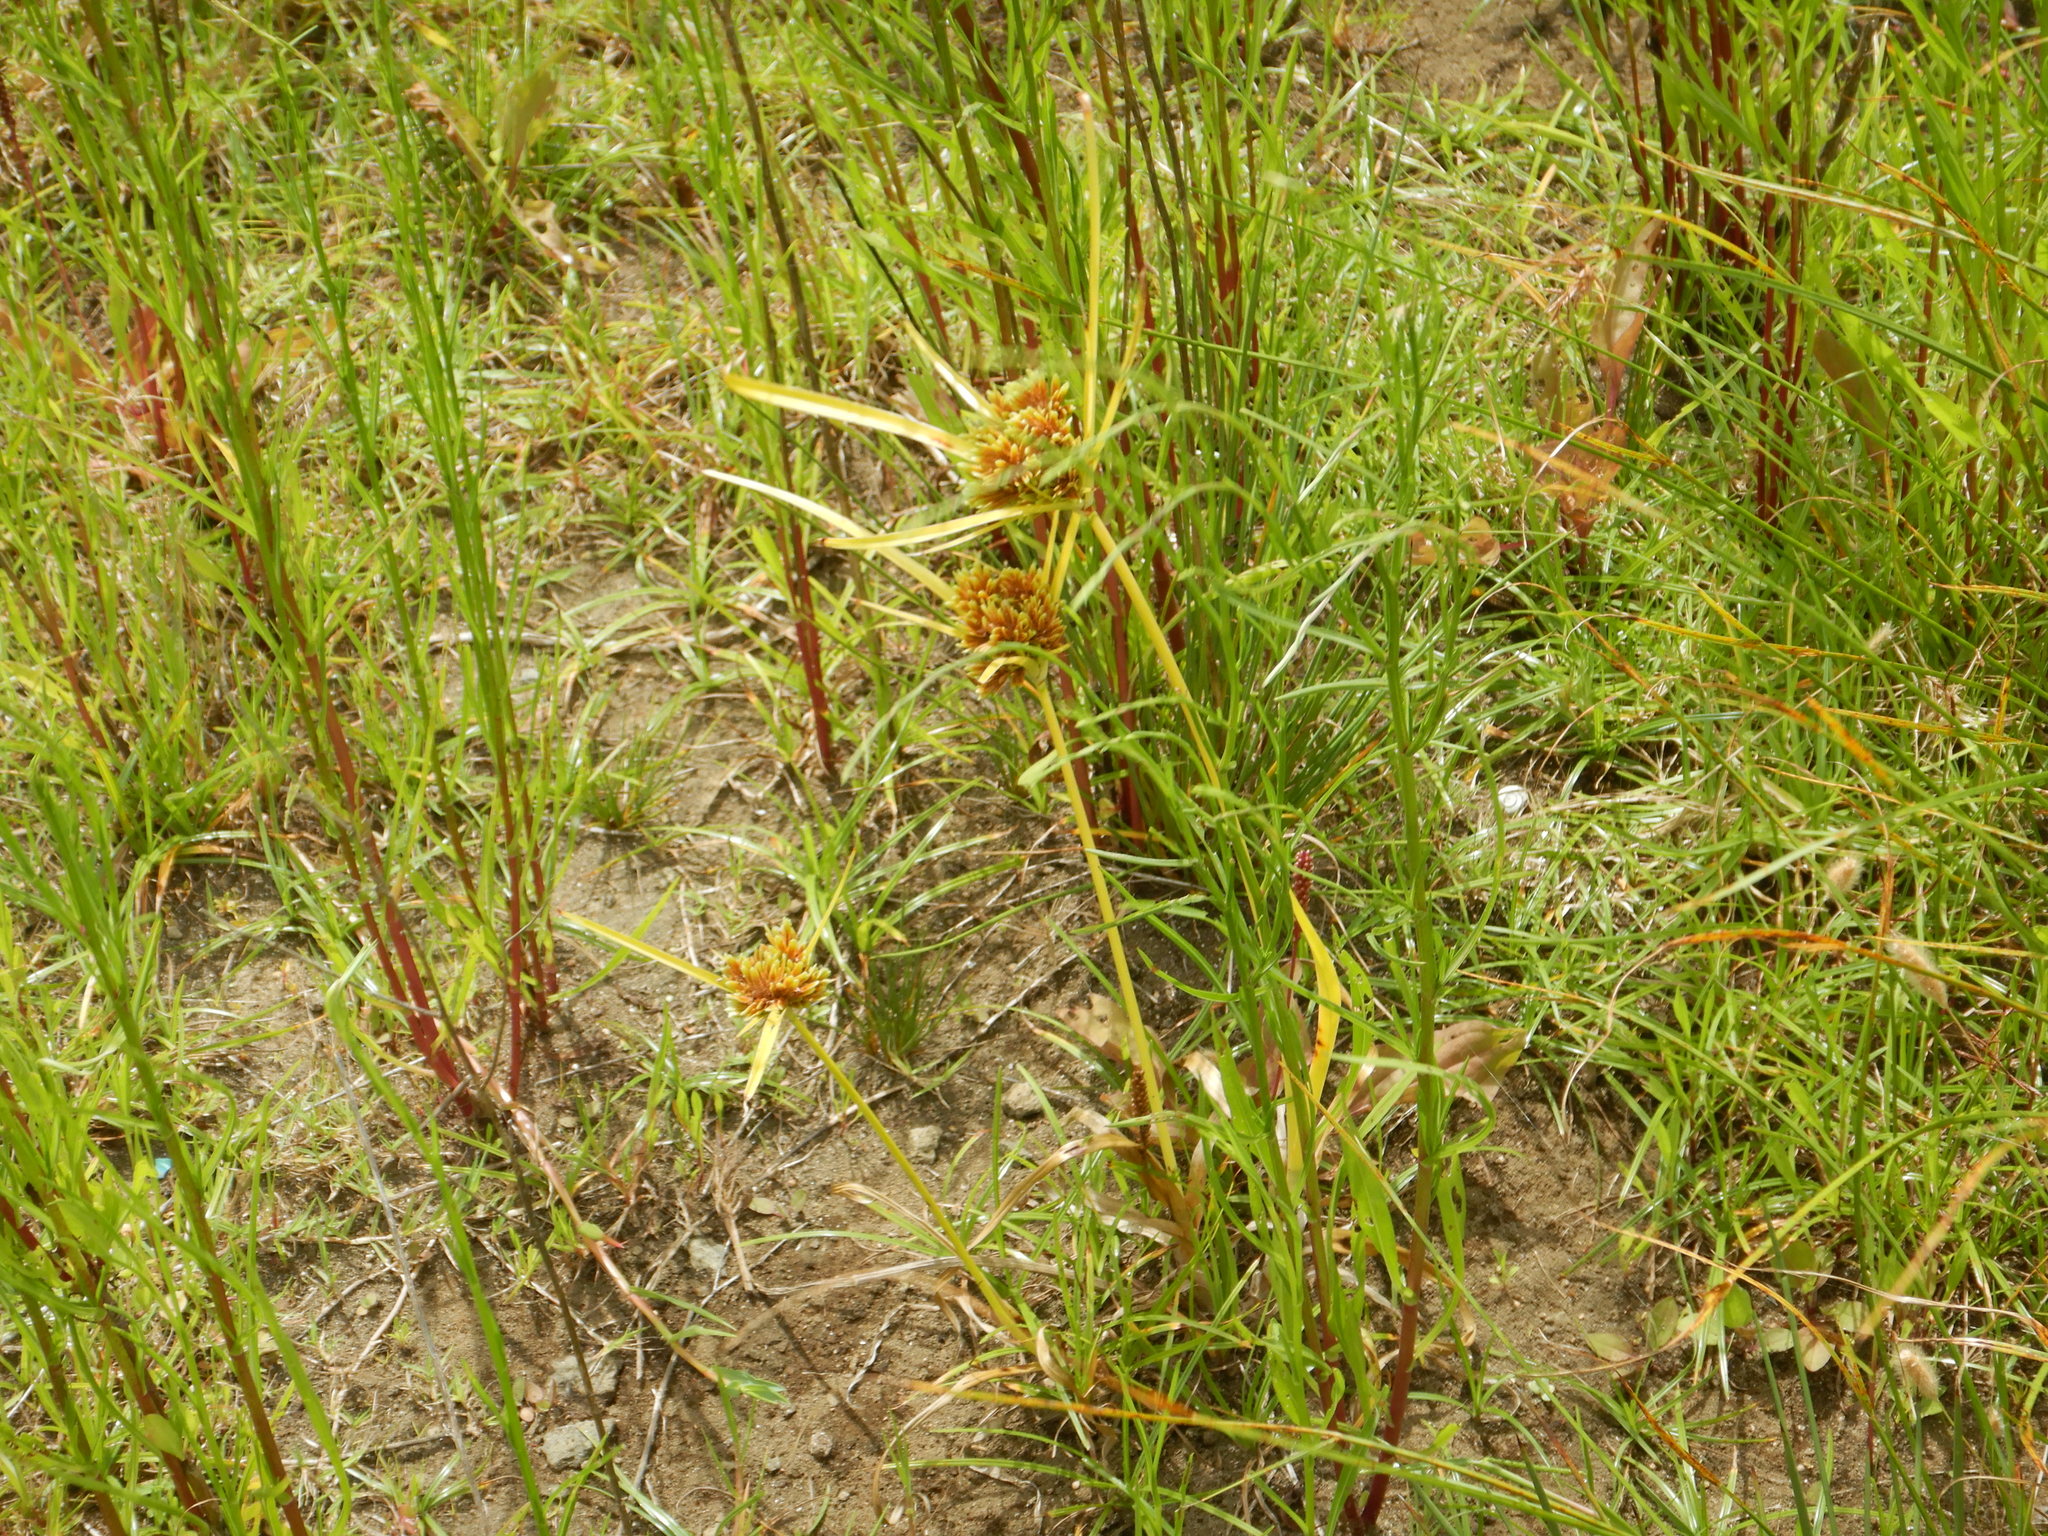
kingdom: Plantae
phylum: Tracheophyta
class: Liliopsida
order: Poales
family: Cyperaceae
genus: Cyperus
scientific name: Cyperus eragrostis
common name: Tall flatsedge
